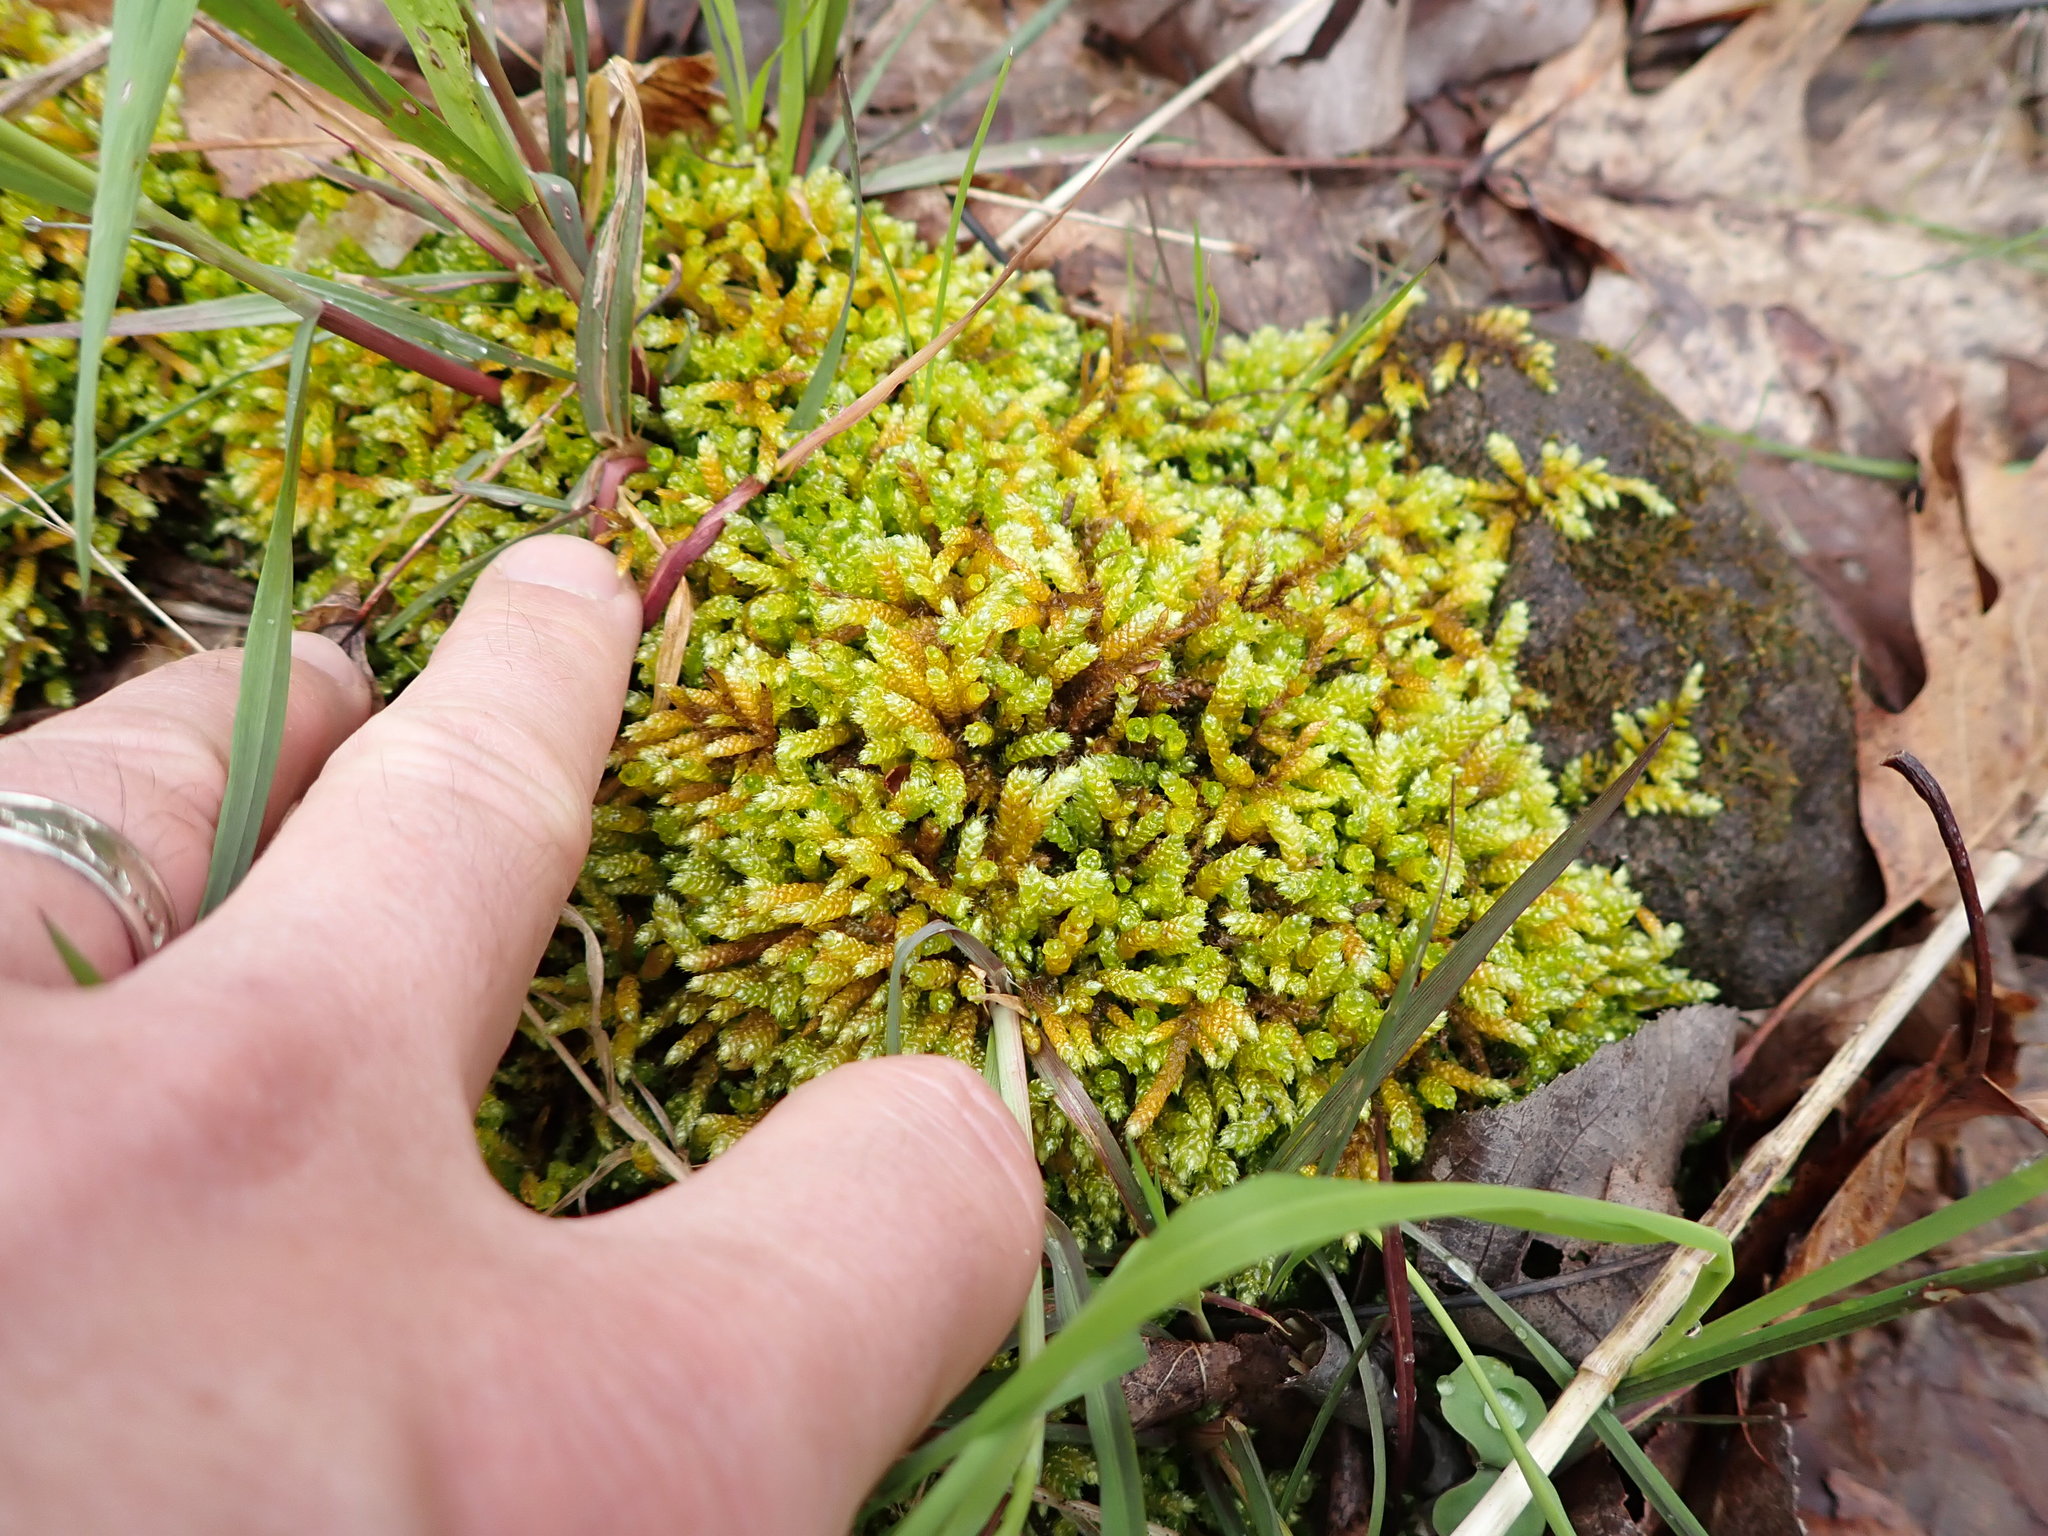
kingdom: Plantae
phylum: Bryophyta
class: Bryopsida
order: Hypnales
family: Brachytheciaceae
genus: Bryoandersonia
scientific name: Bryoandersonia illecebra
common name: Spoon-leaved moss
